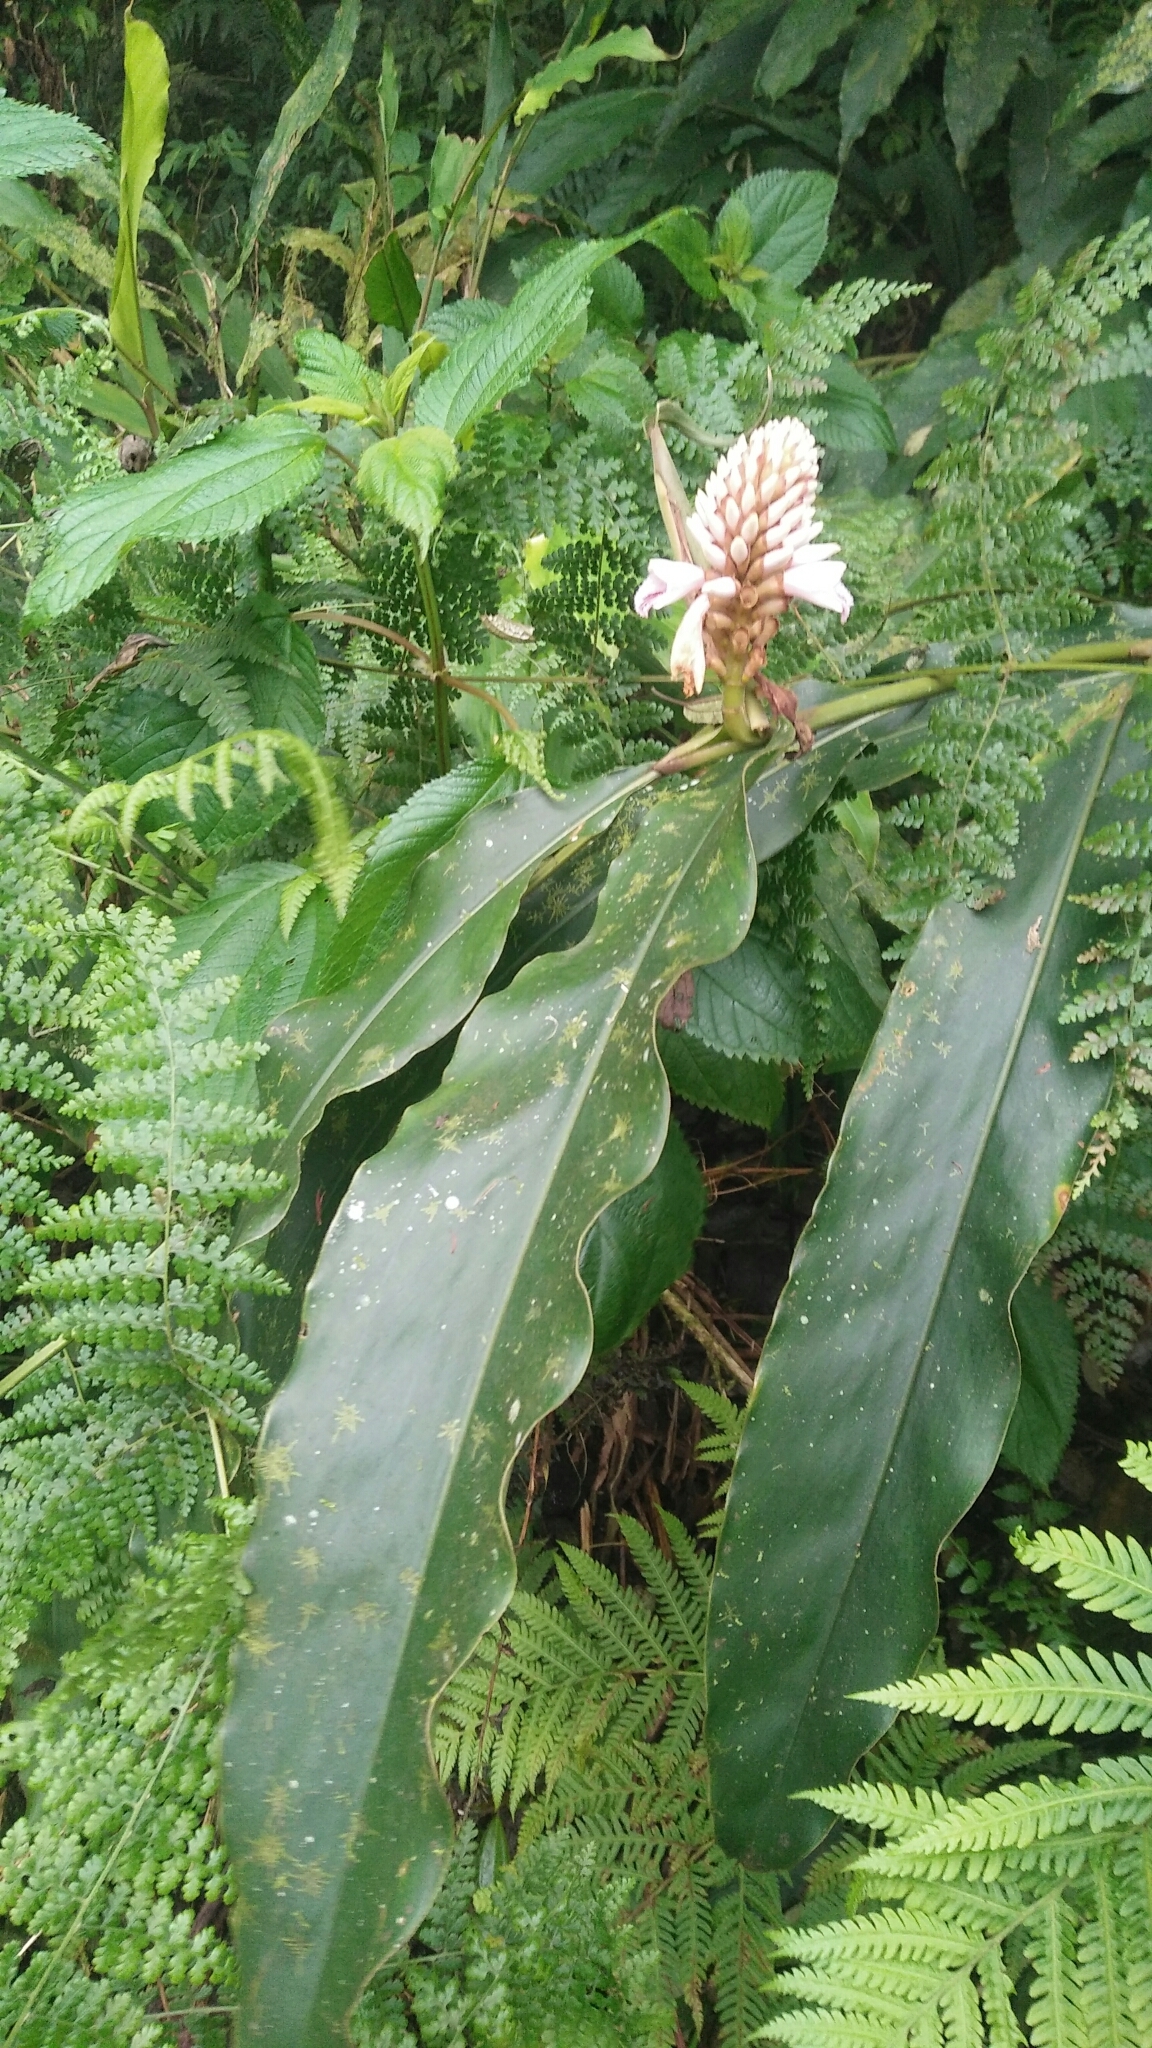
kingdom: Plantae
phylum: Tracheophyta
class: Liliopsida
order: Zingiberales
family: Zingiberaceae
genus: Alpinia
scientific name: Alpinia pricei
